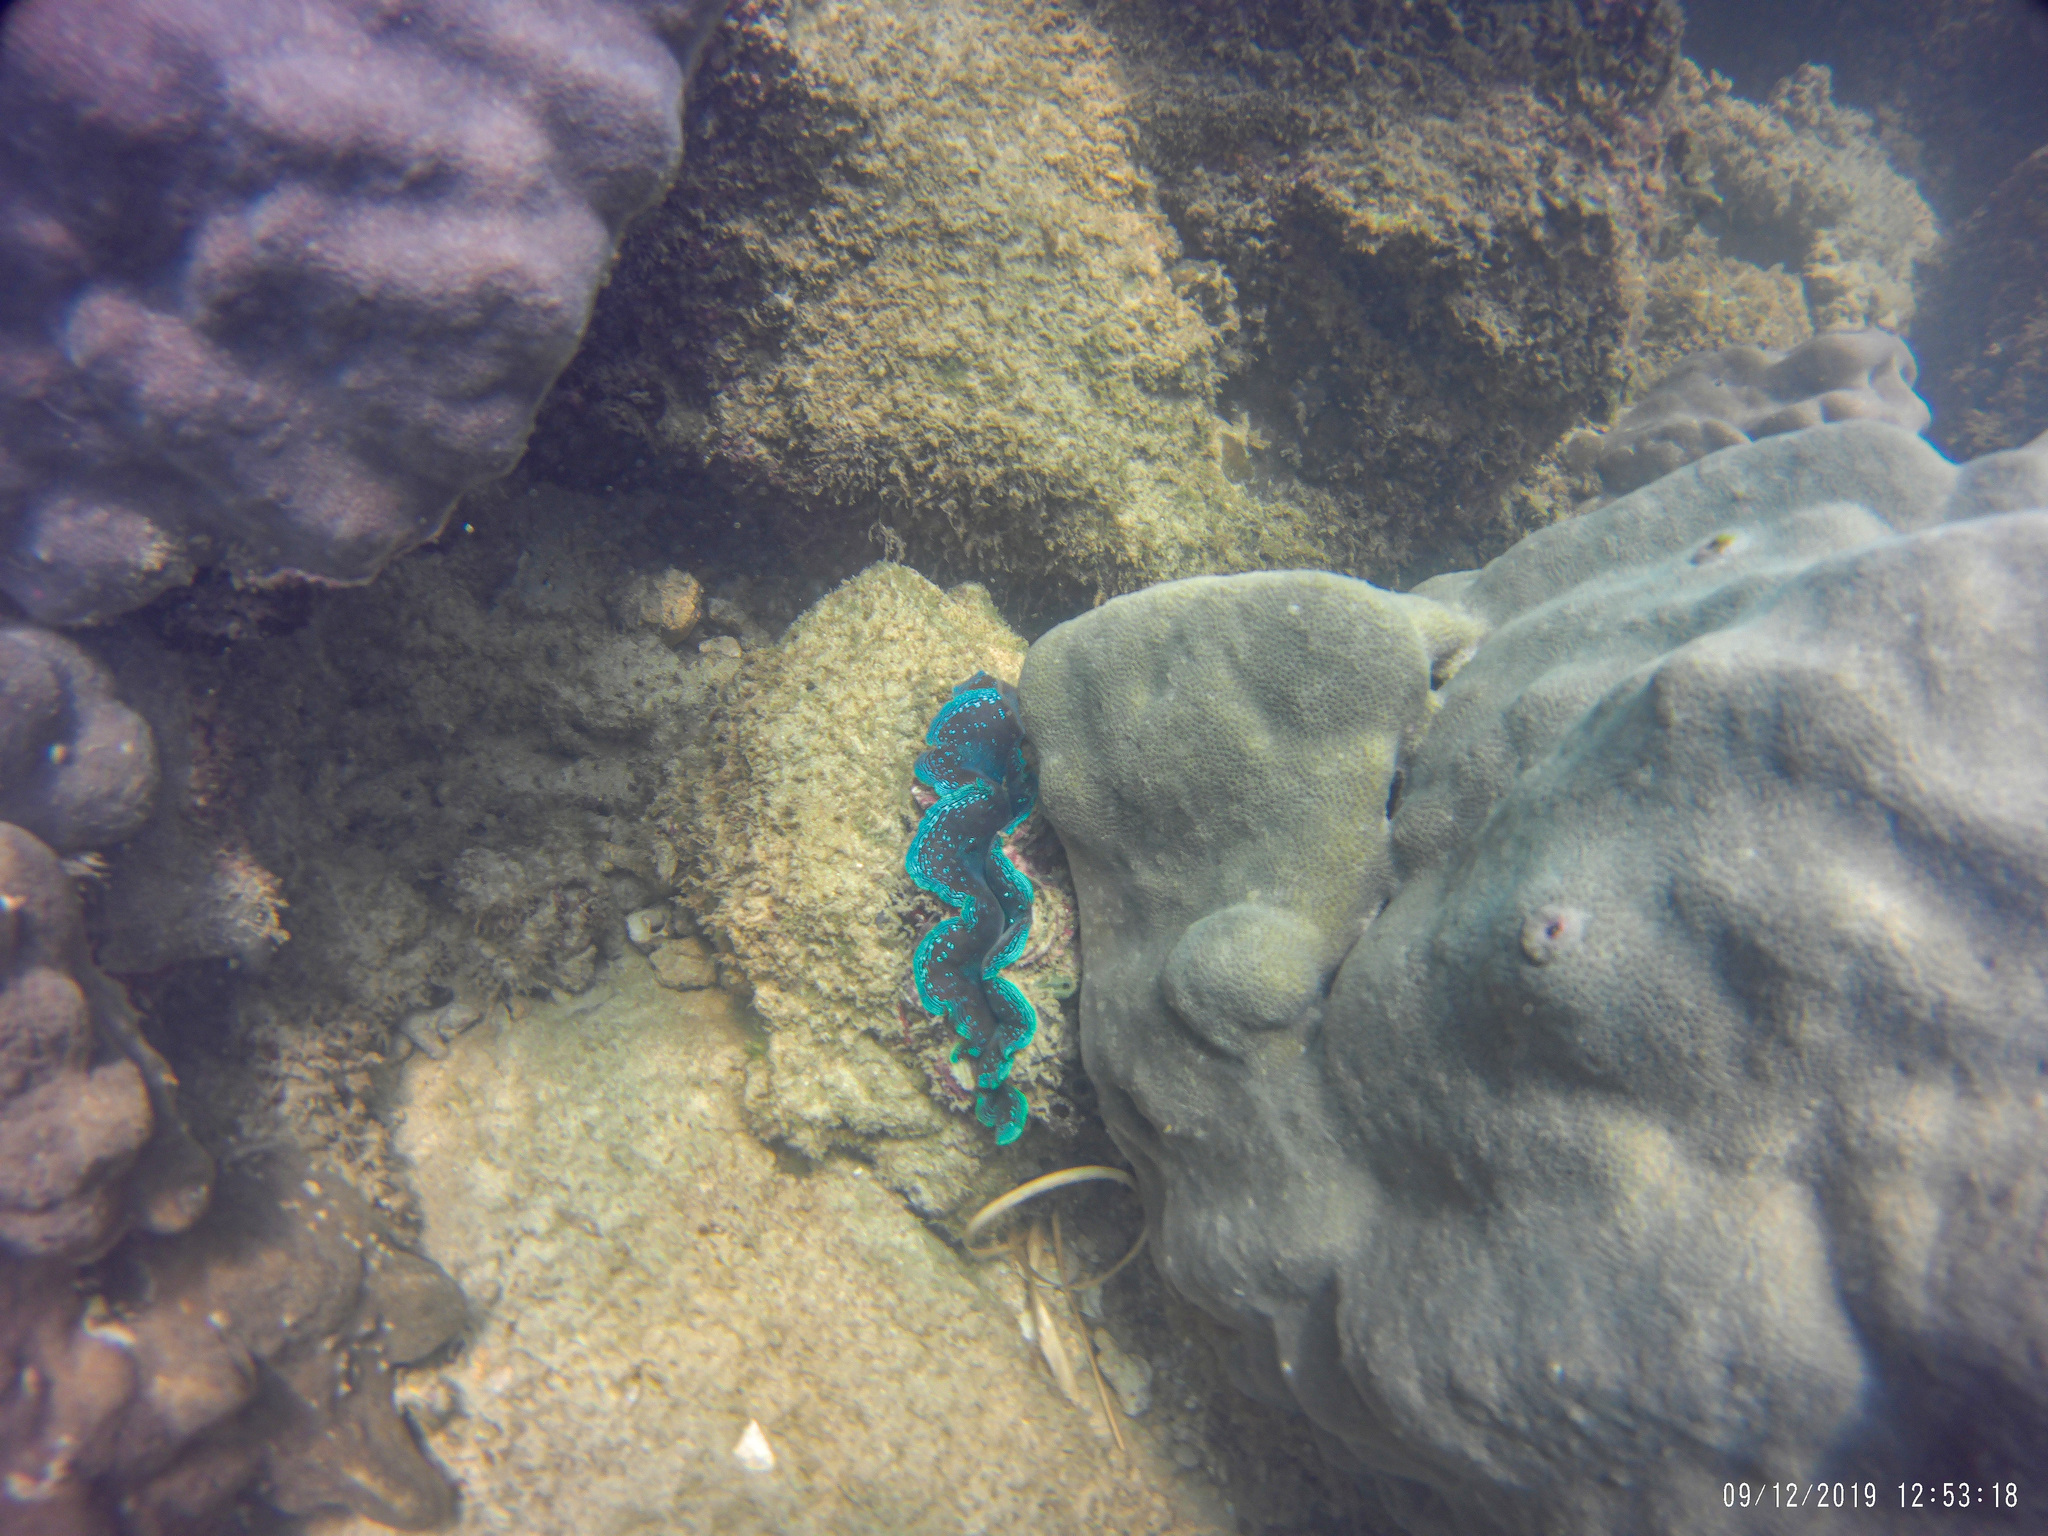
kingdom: Animalia
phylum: Mollusca
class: Bivalvia
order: Cardiida
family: Cardiidae
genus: Tridacna
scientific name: Tridacna maxima
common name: Small giant clam
